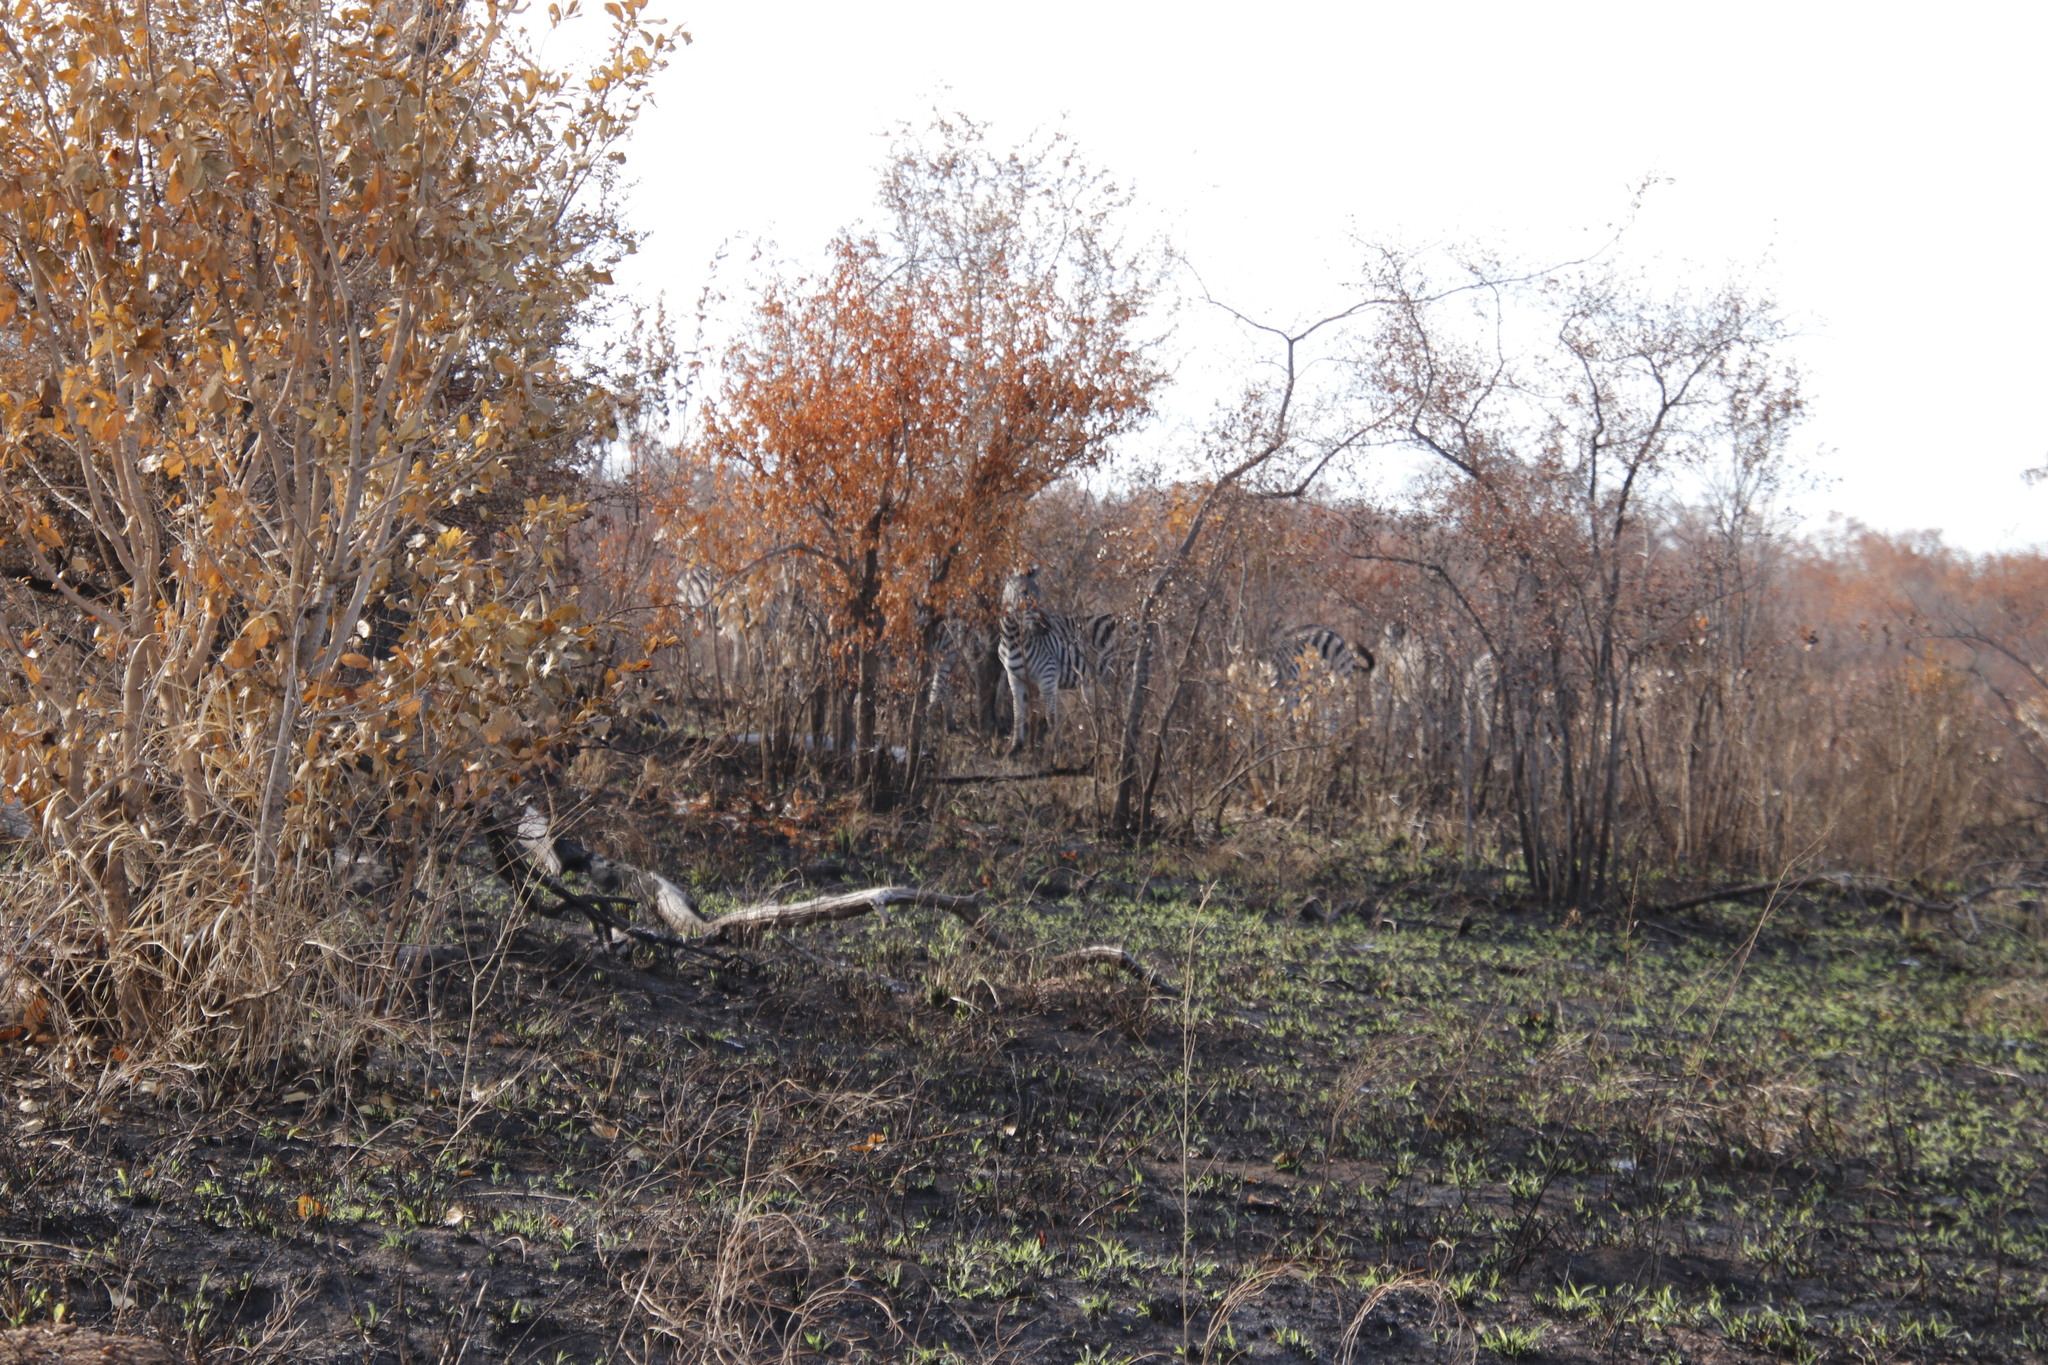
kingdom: Animalia
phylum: Chordata
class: Mammalia
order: Perissodactyla
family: Equidae
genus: Equus
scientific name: Equus quagga
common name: Plains zebra
